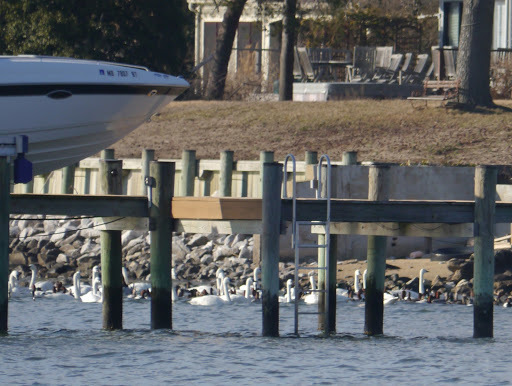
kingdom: Animalia
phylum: Chordata
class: Aves
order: Anseriformes
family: Anatidae
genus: Cygnus
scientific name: Cygnus columbianus
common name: Tundra swan
